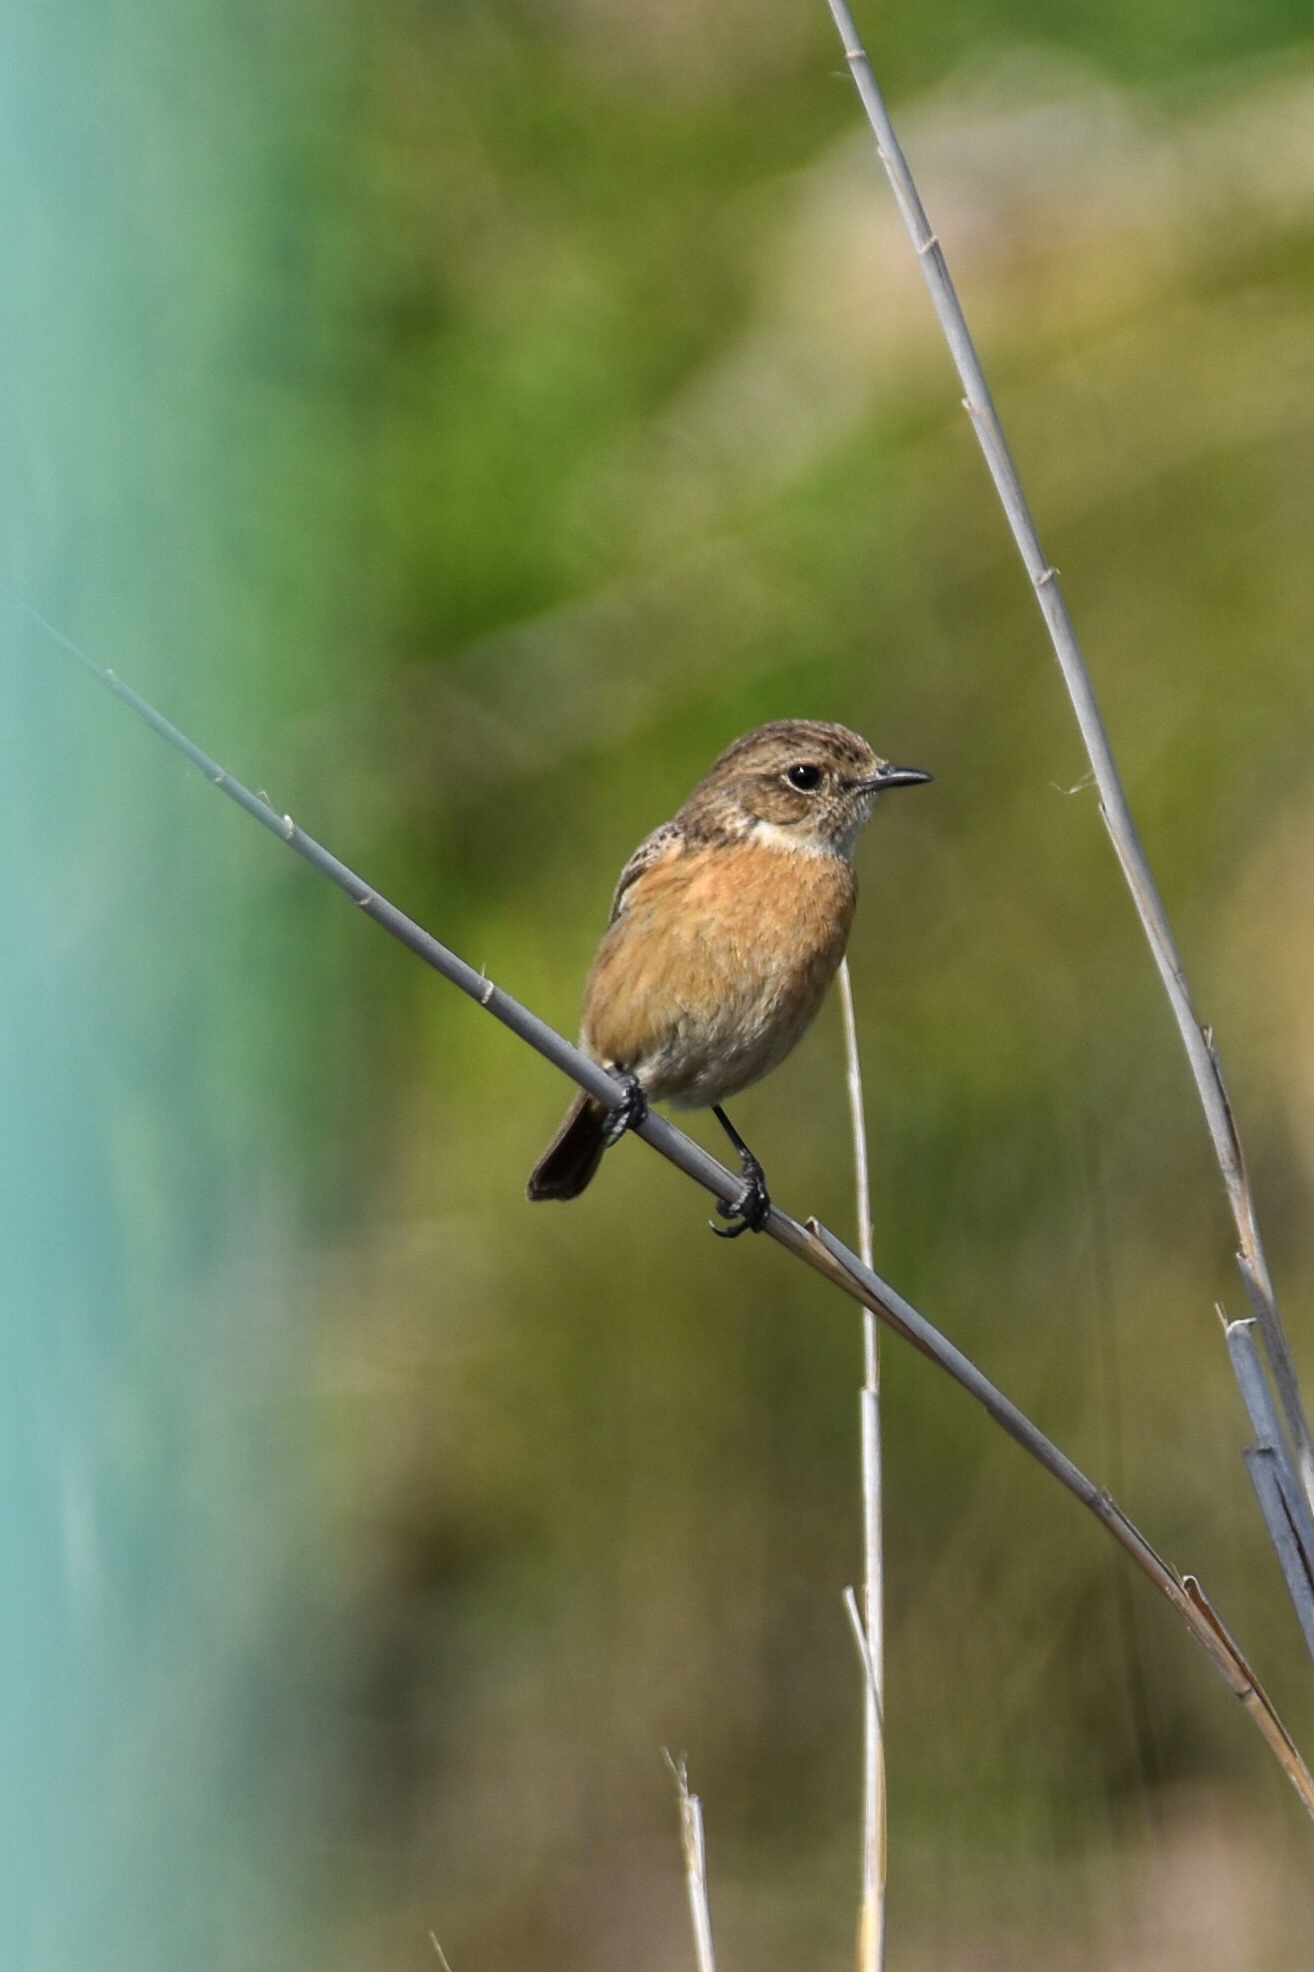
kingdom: Animalia
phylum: Chordata
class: Aves
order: Passeriformes
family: Muscicapidae
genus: Saxicola
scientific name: Saxicola rubicola
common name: European stonechat
